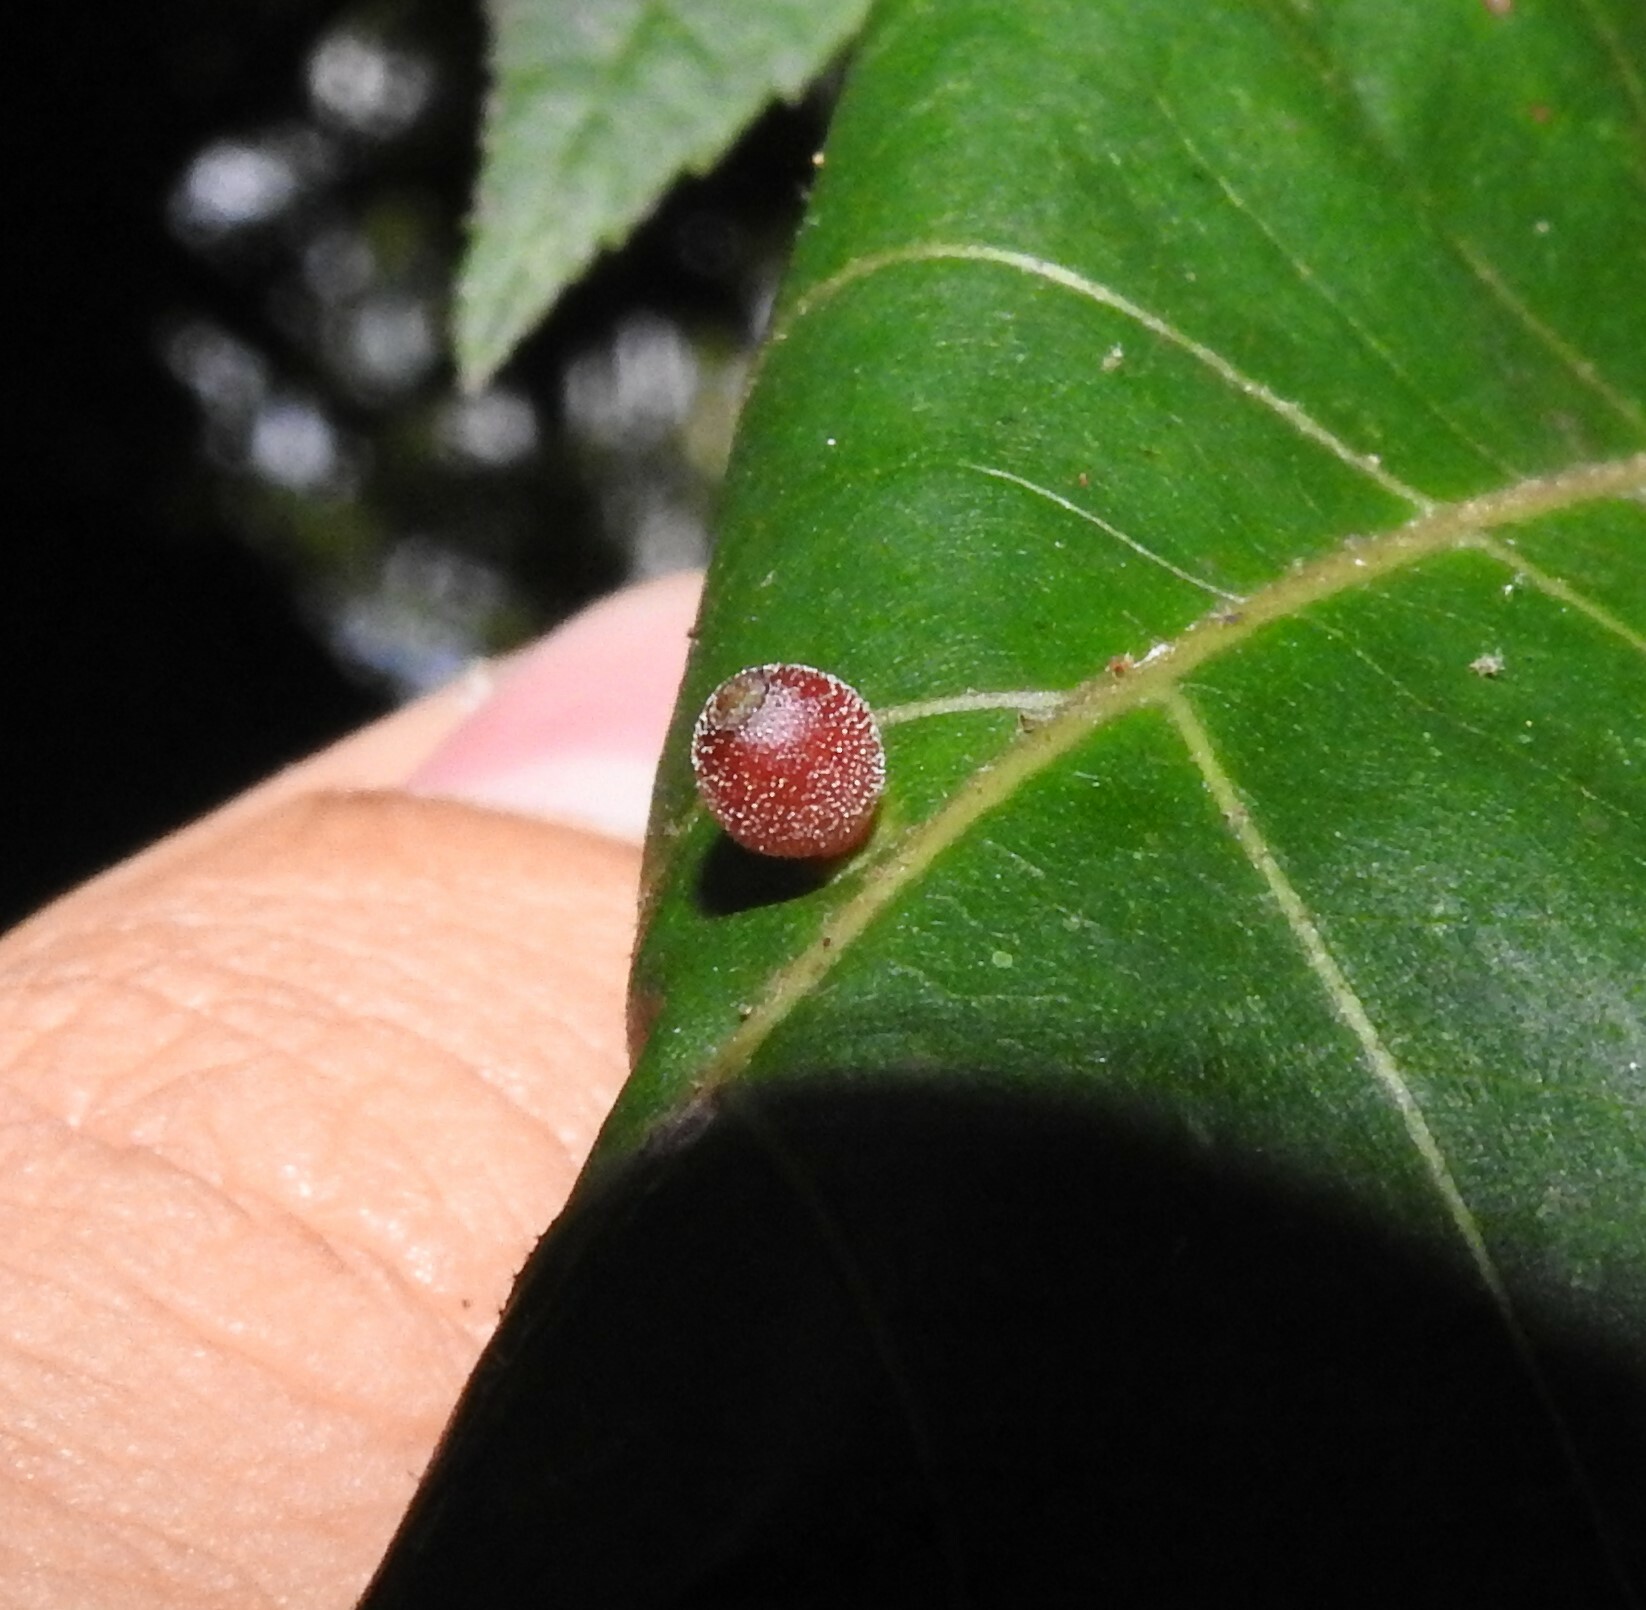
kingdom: Animalia
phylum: Arthropoda
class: Insecta
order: Diptera
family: Cecidomyiidae
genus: Caryomyia
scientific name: Caryomyia viscidolium
